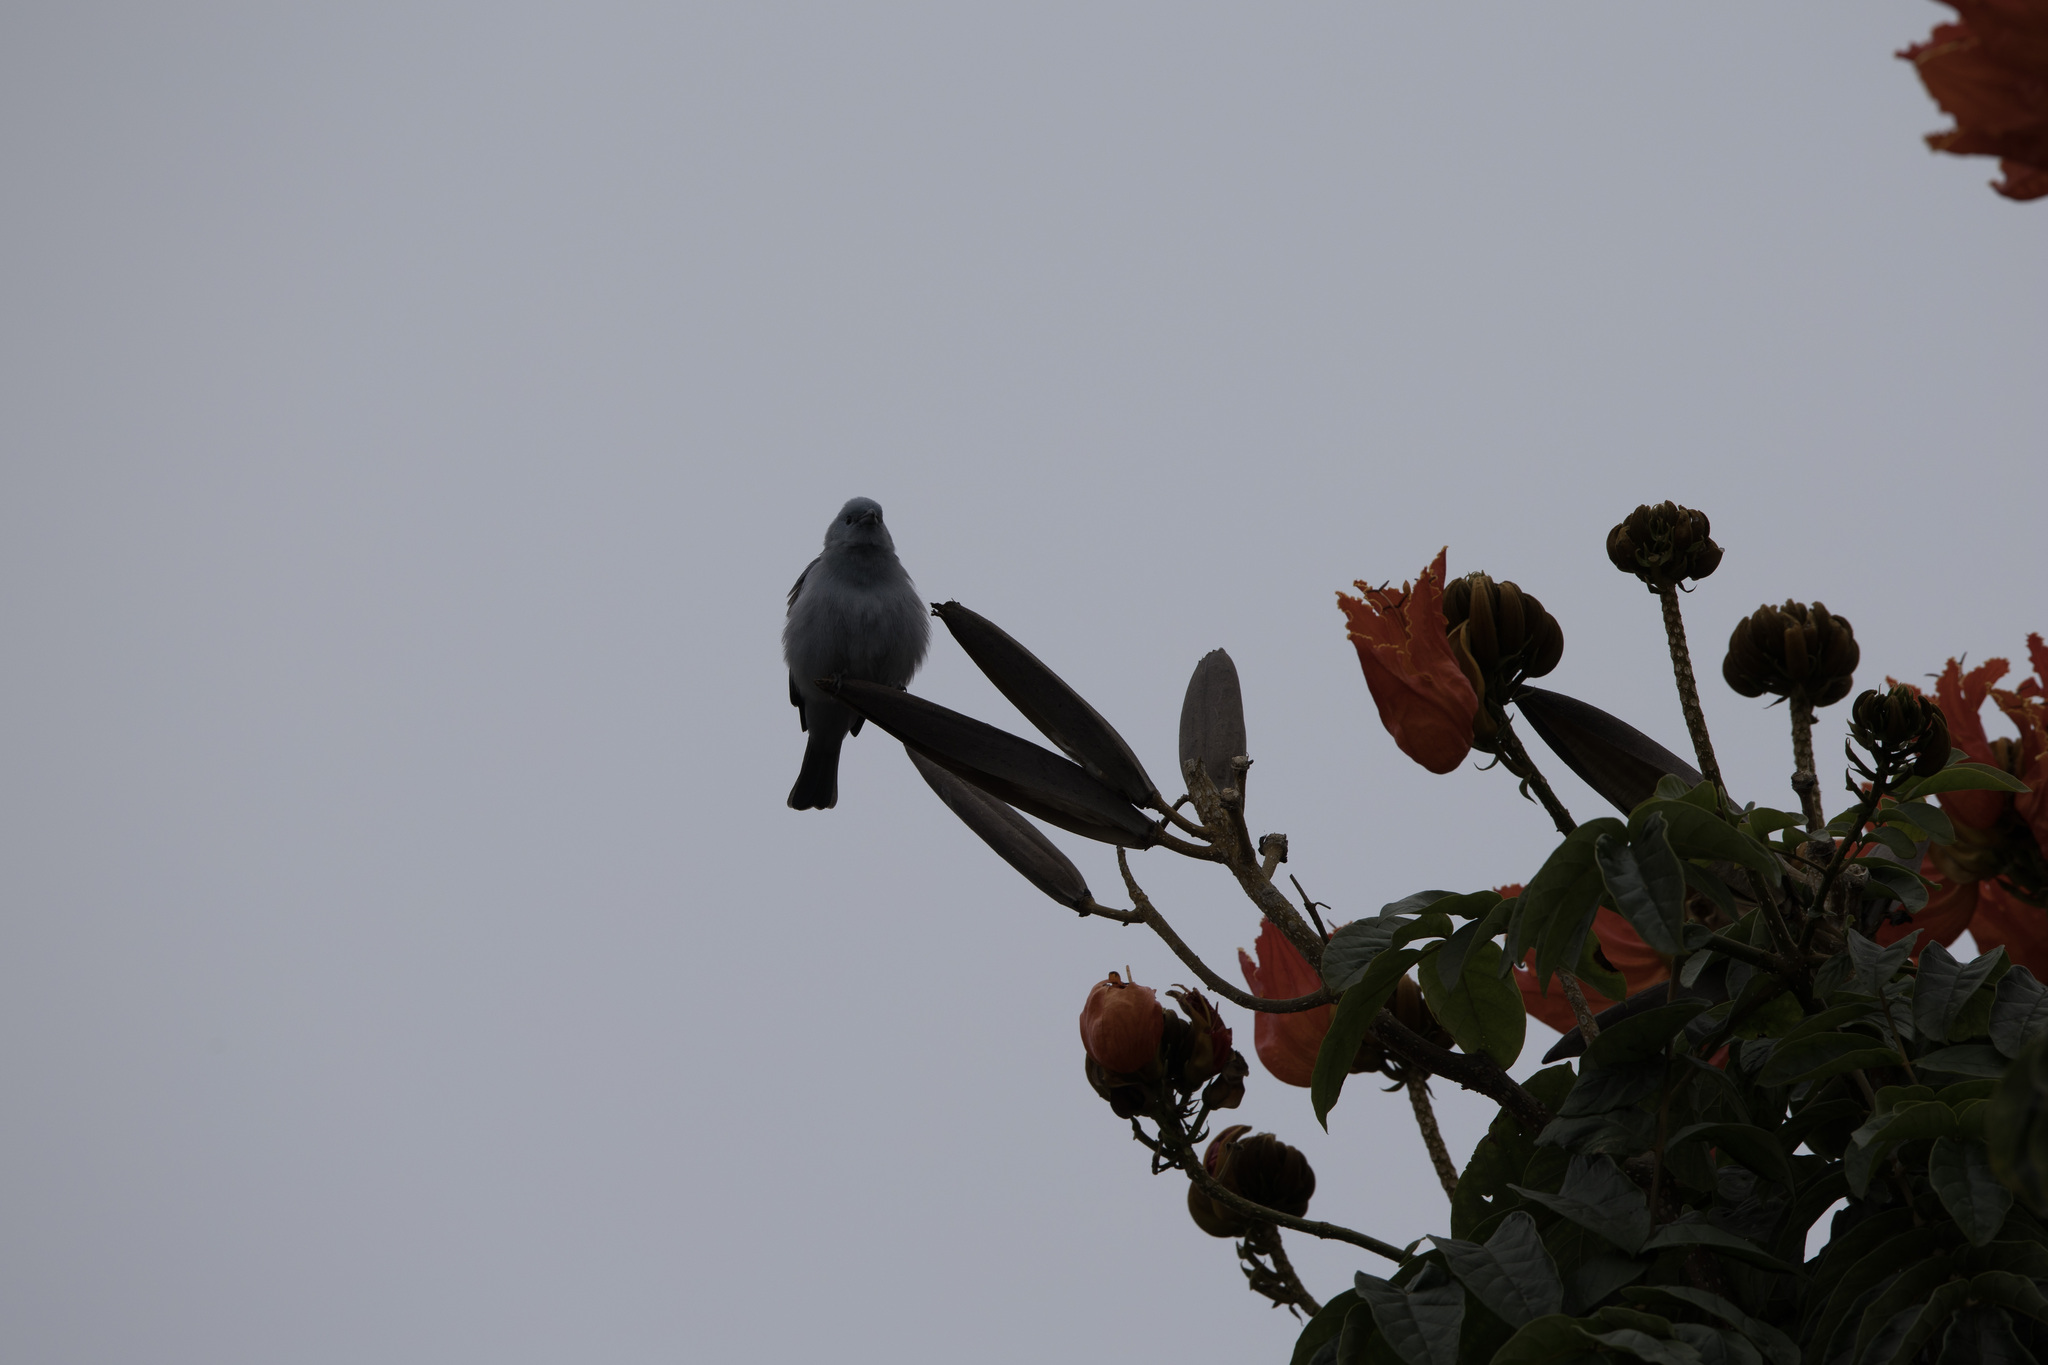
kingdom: Animalia
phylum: Chordata
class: Aves
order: Passeriformes
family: Thraupidae
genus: Thraupis
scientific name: Thraupis episcopus
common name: Blue-grey tanager
